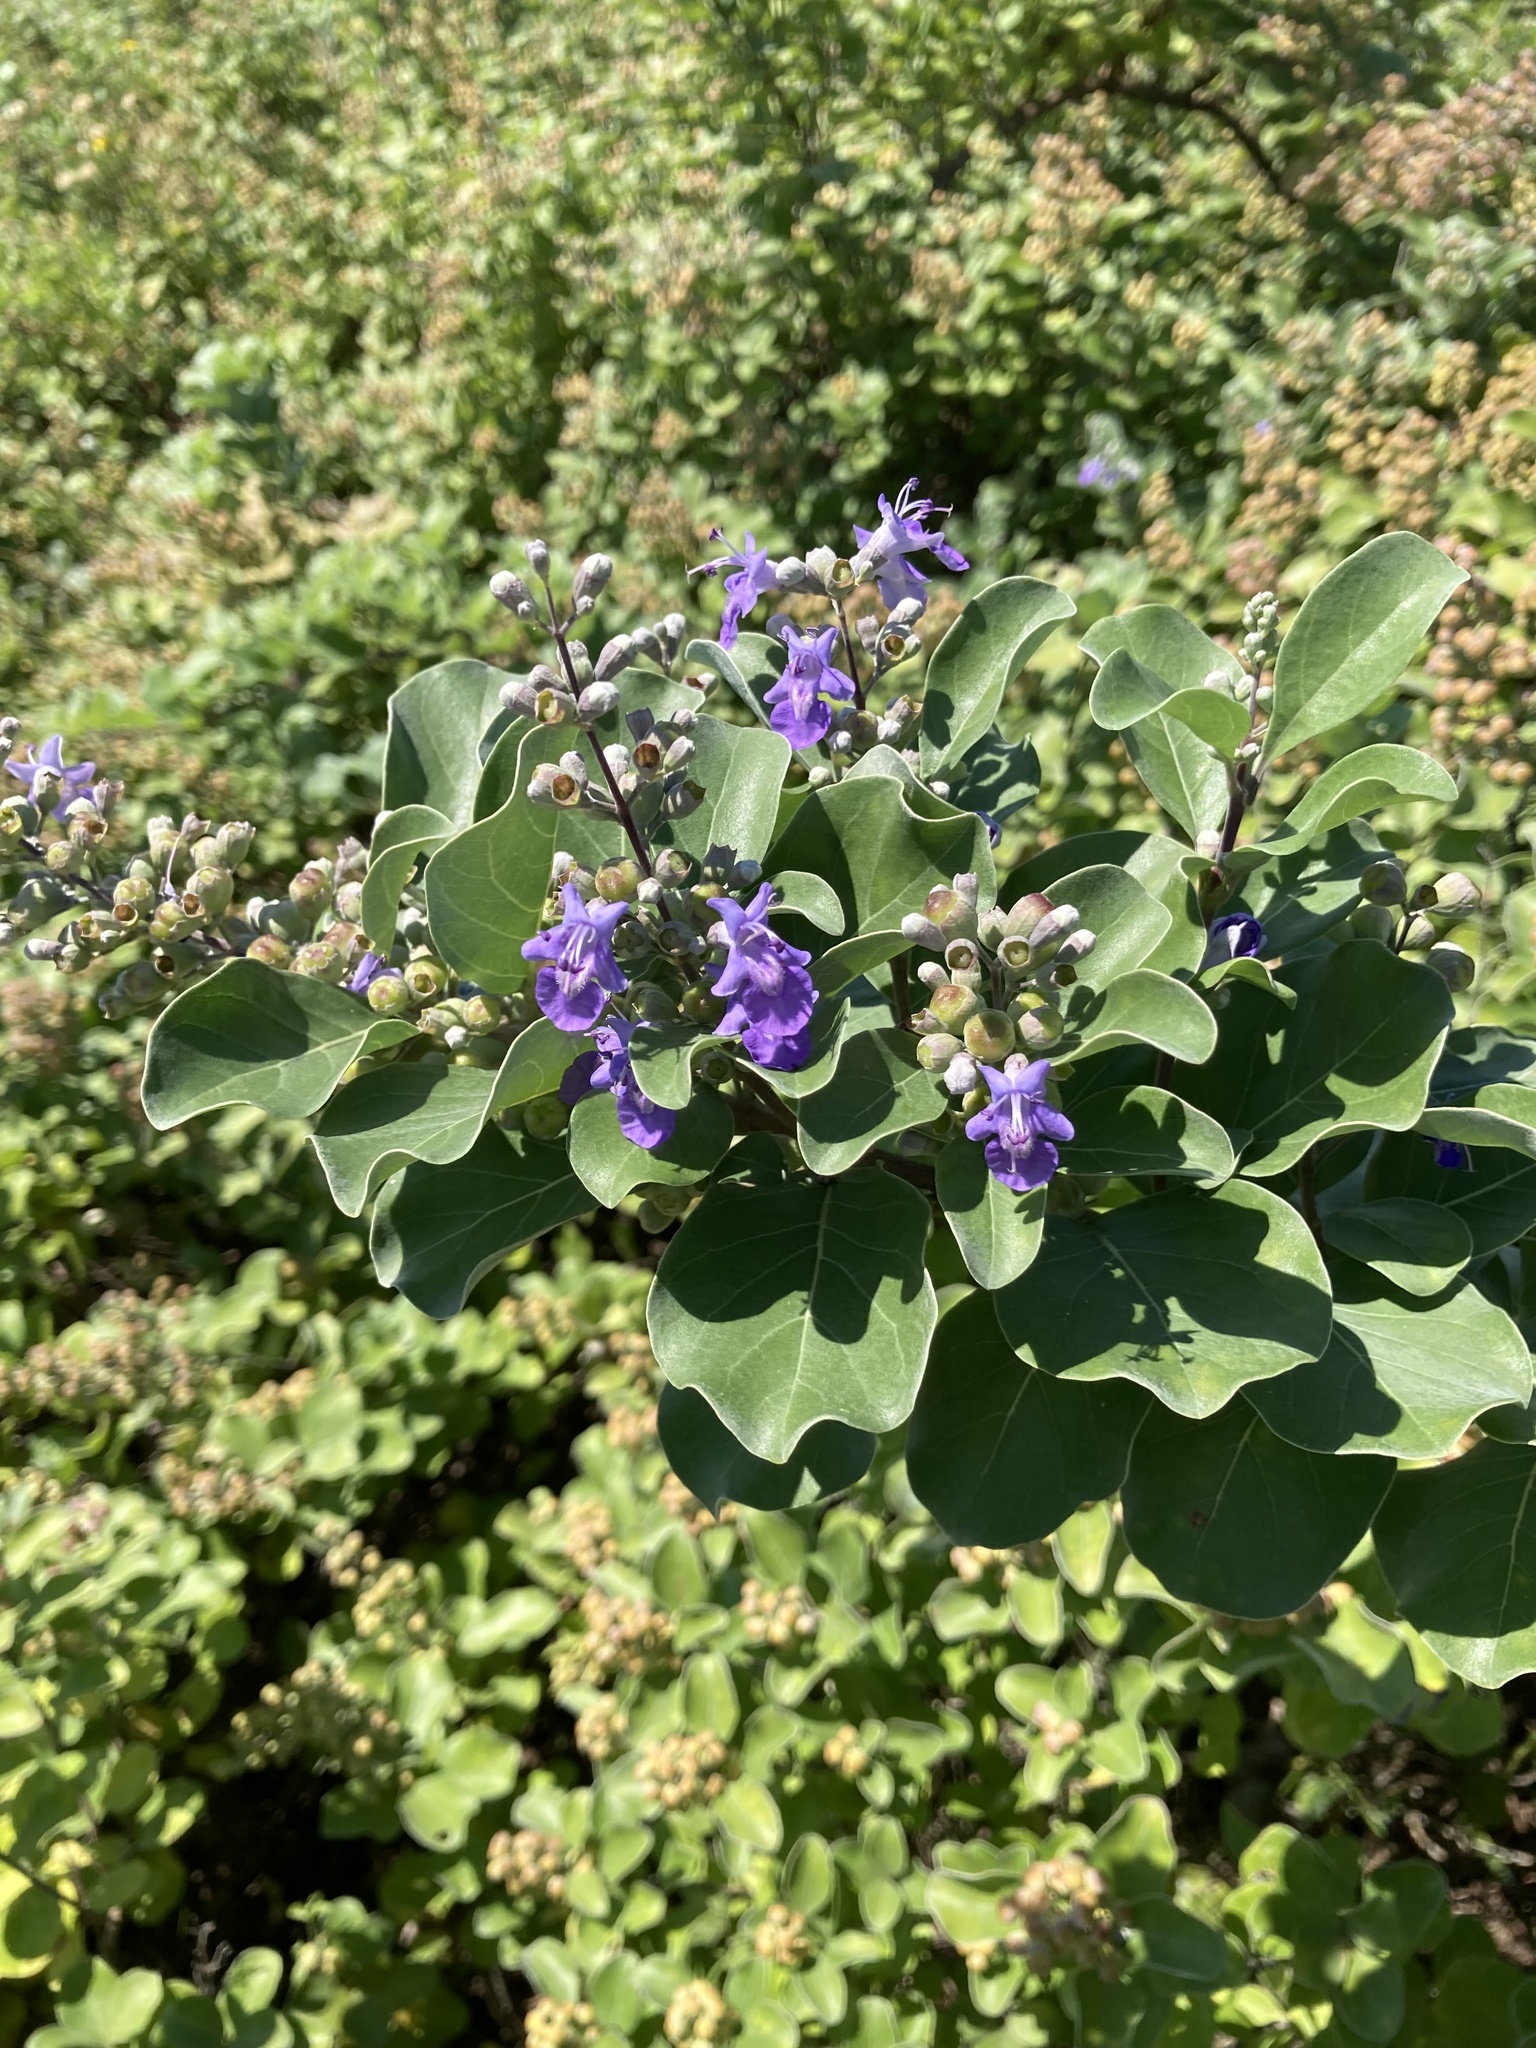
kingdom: Plantae
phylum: Tracheophyta
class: Magnoliopsida
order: Lamiales
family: Lamiaceae
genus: Vitex
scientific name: Vitex rotundifolia
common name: Beach vitex
